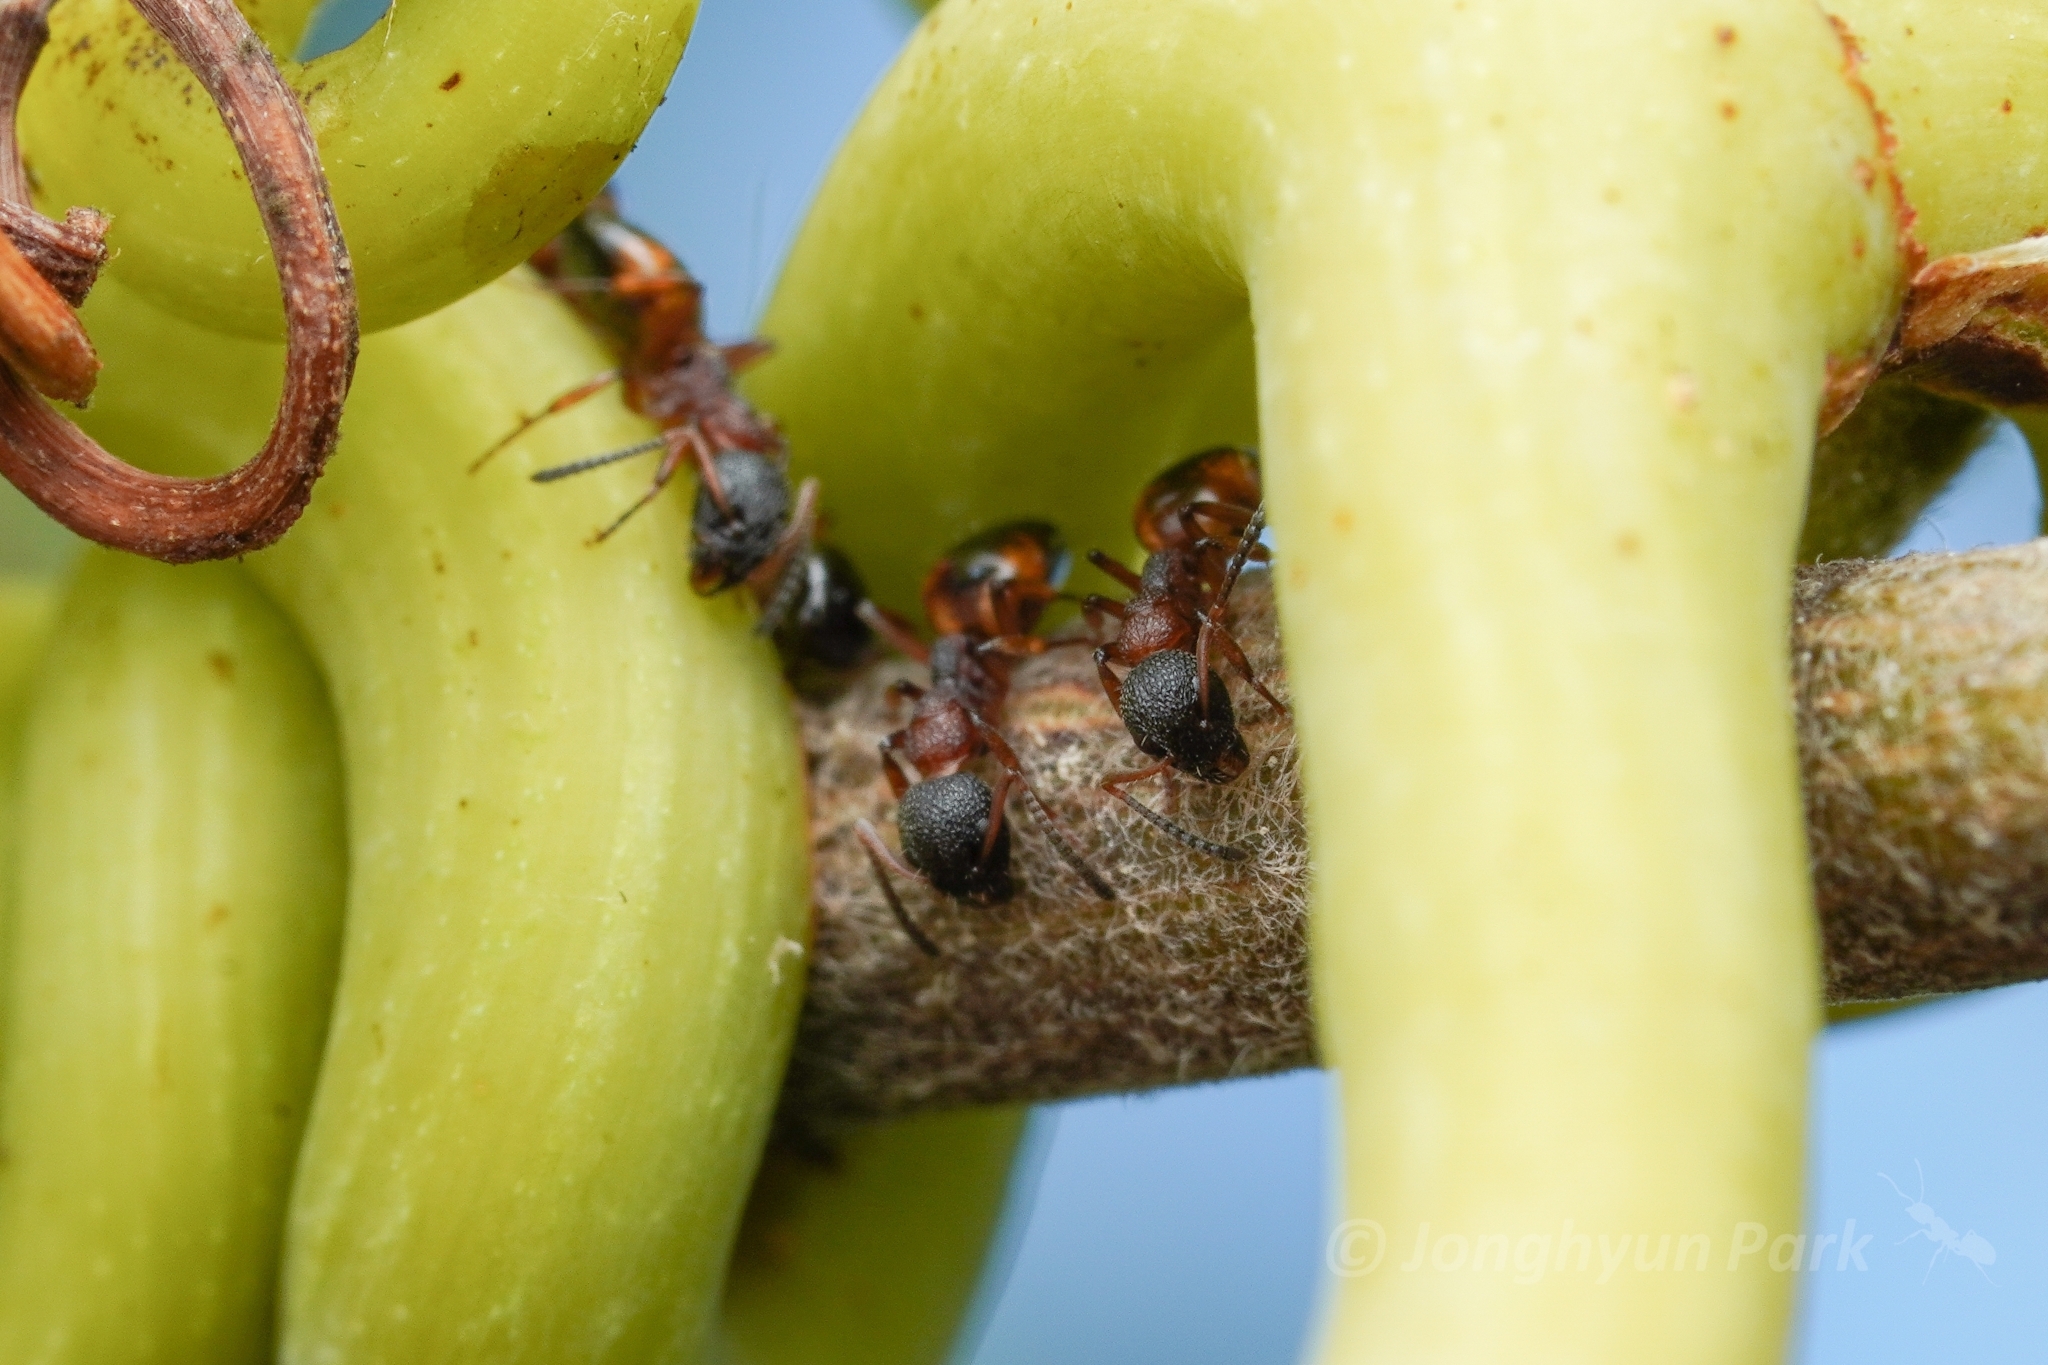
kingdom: Animalia
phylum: Arthropoda
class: Insecta
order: Hymenoptera
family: Formicidae
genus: Dolichoderus
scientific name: Dolichoderus plagiatus
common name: Mottled dolichoderus
